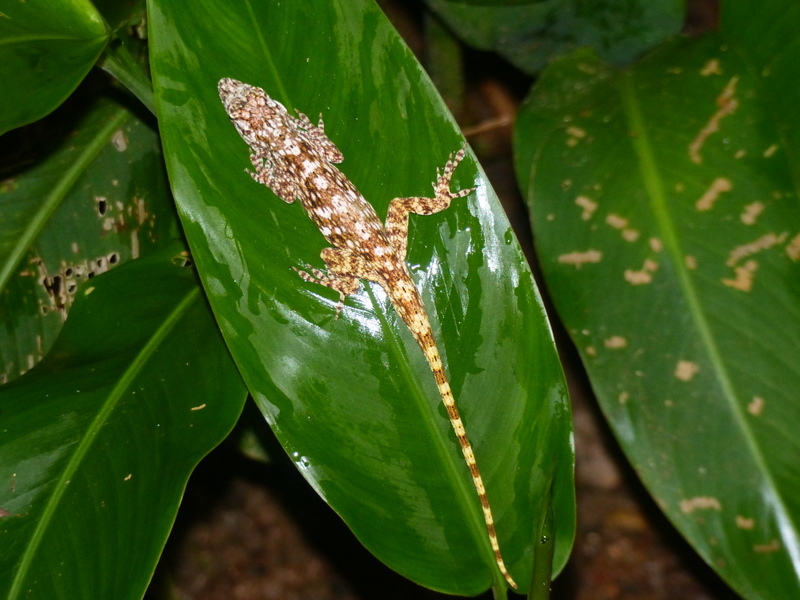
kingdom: Animalia
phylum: Chordata
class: Squamata
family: Dactyloidae
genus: Anolis
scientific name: Anolis pentaprion
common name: Lichen anole
